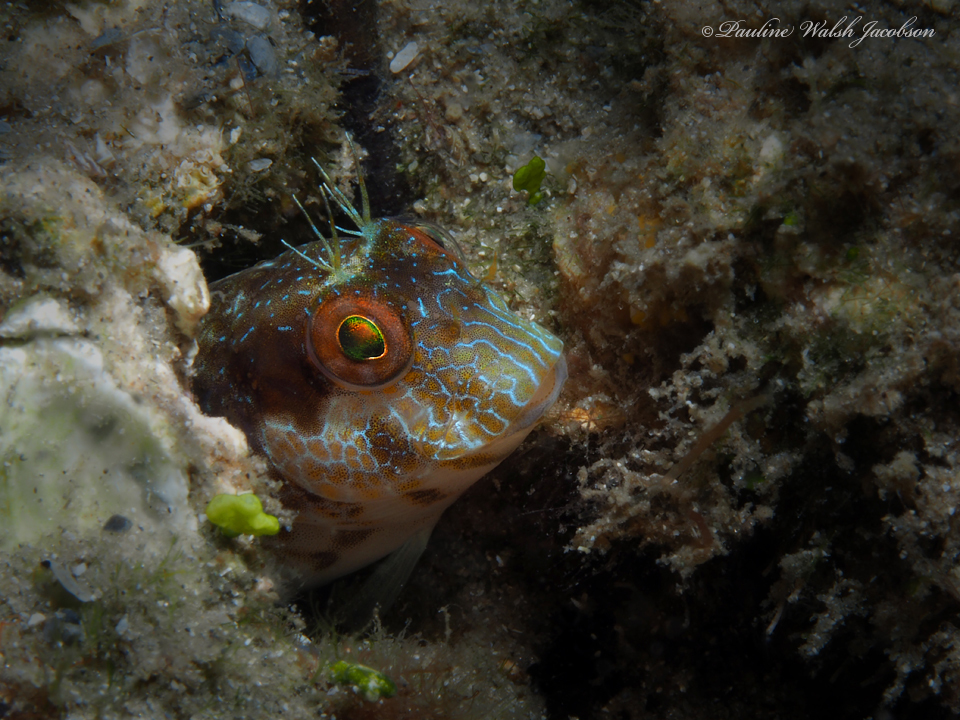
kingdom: Animalia
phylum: Chordata
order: Perciformes
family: Blenniidae
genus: Parablennius
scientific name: Parablennius marmoreus
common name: Seaweed blenny
